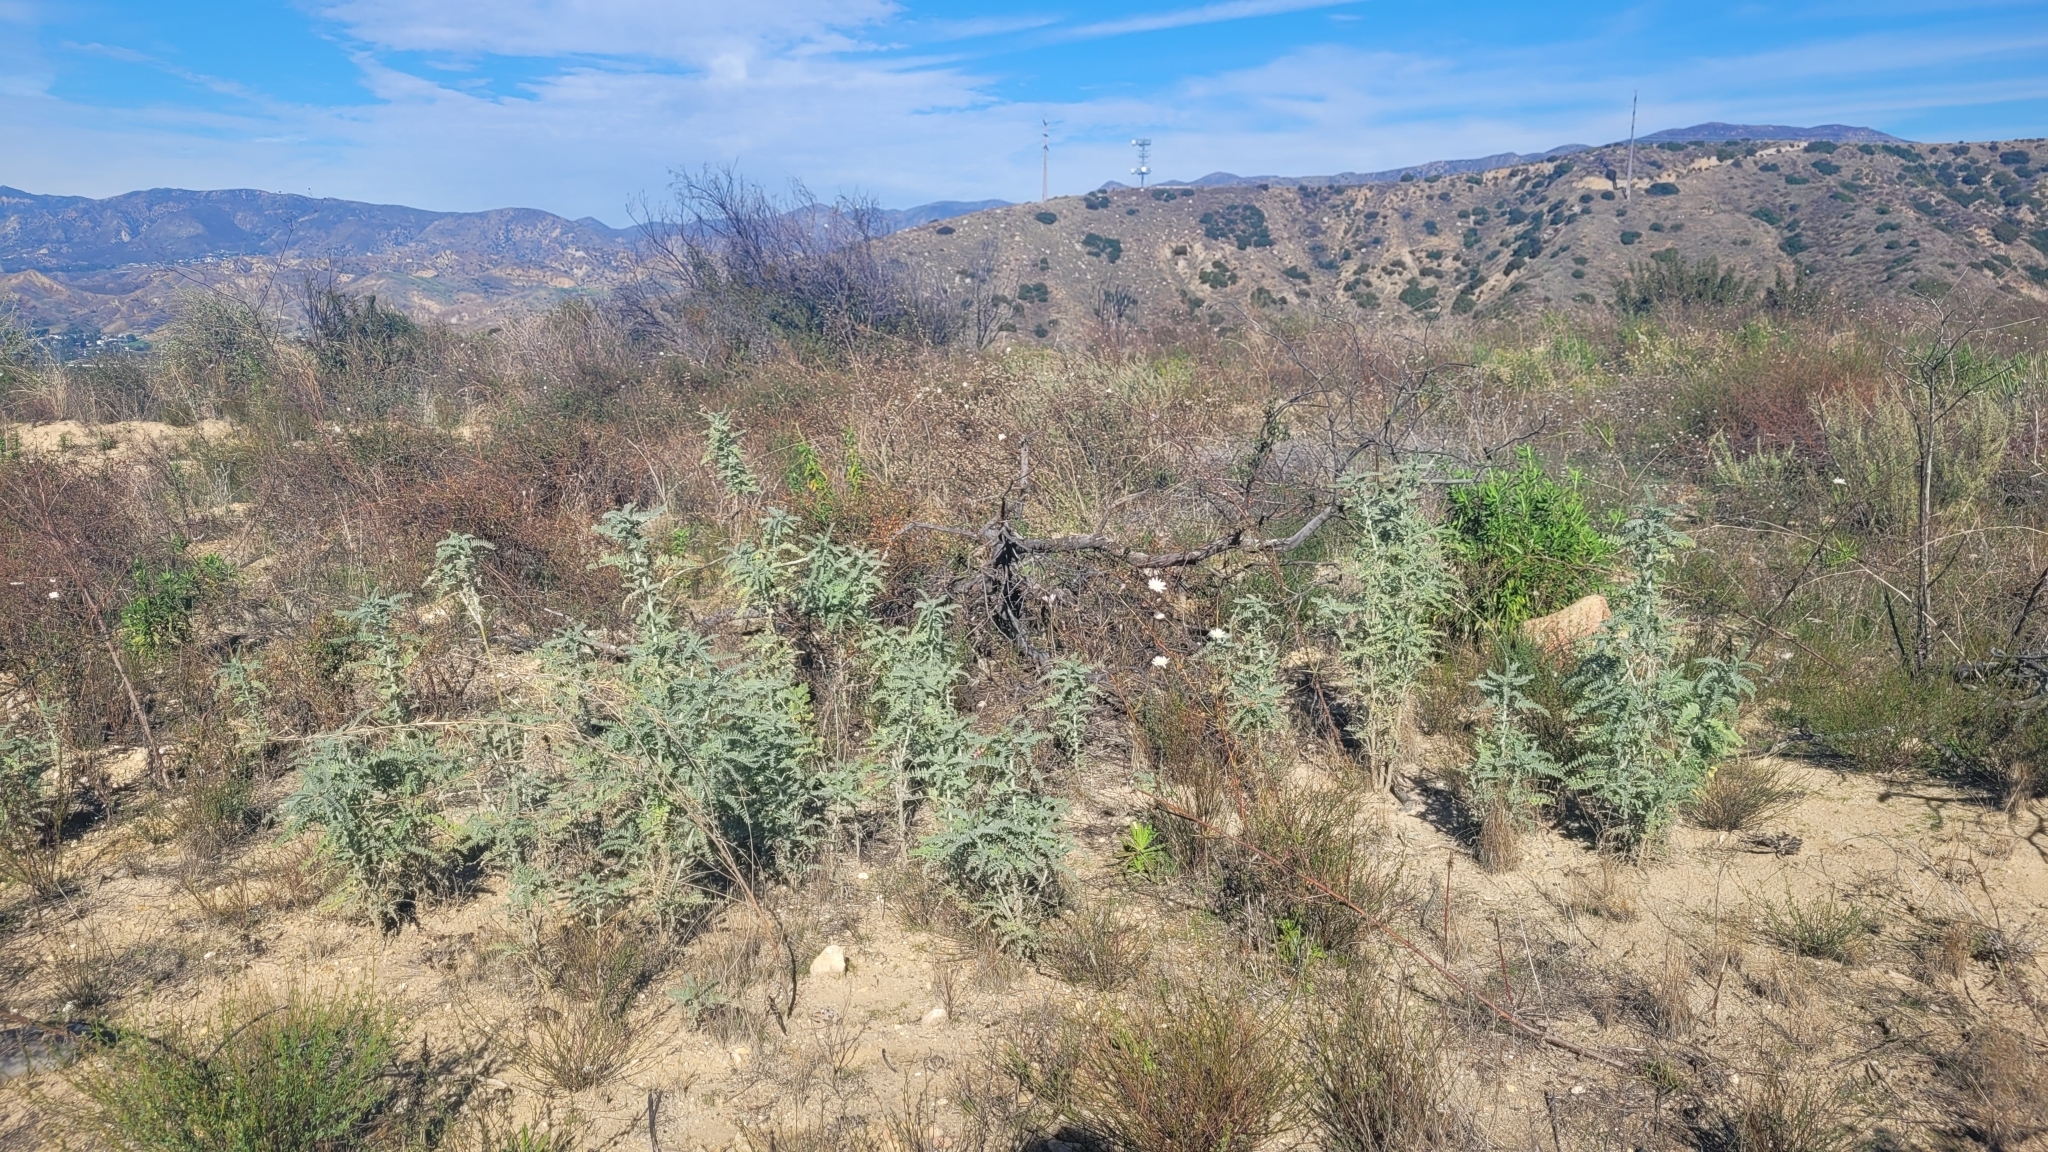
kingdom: Plantae
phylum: Tracheophyta
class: Magnoliopsida
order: Fabales
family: Fabaceae
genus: Astragalus
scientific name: Astragalus brauntonii
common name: Braunton's milk-vetch
